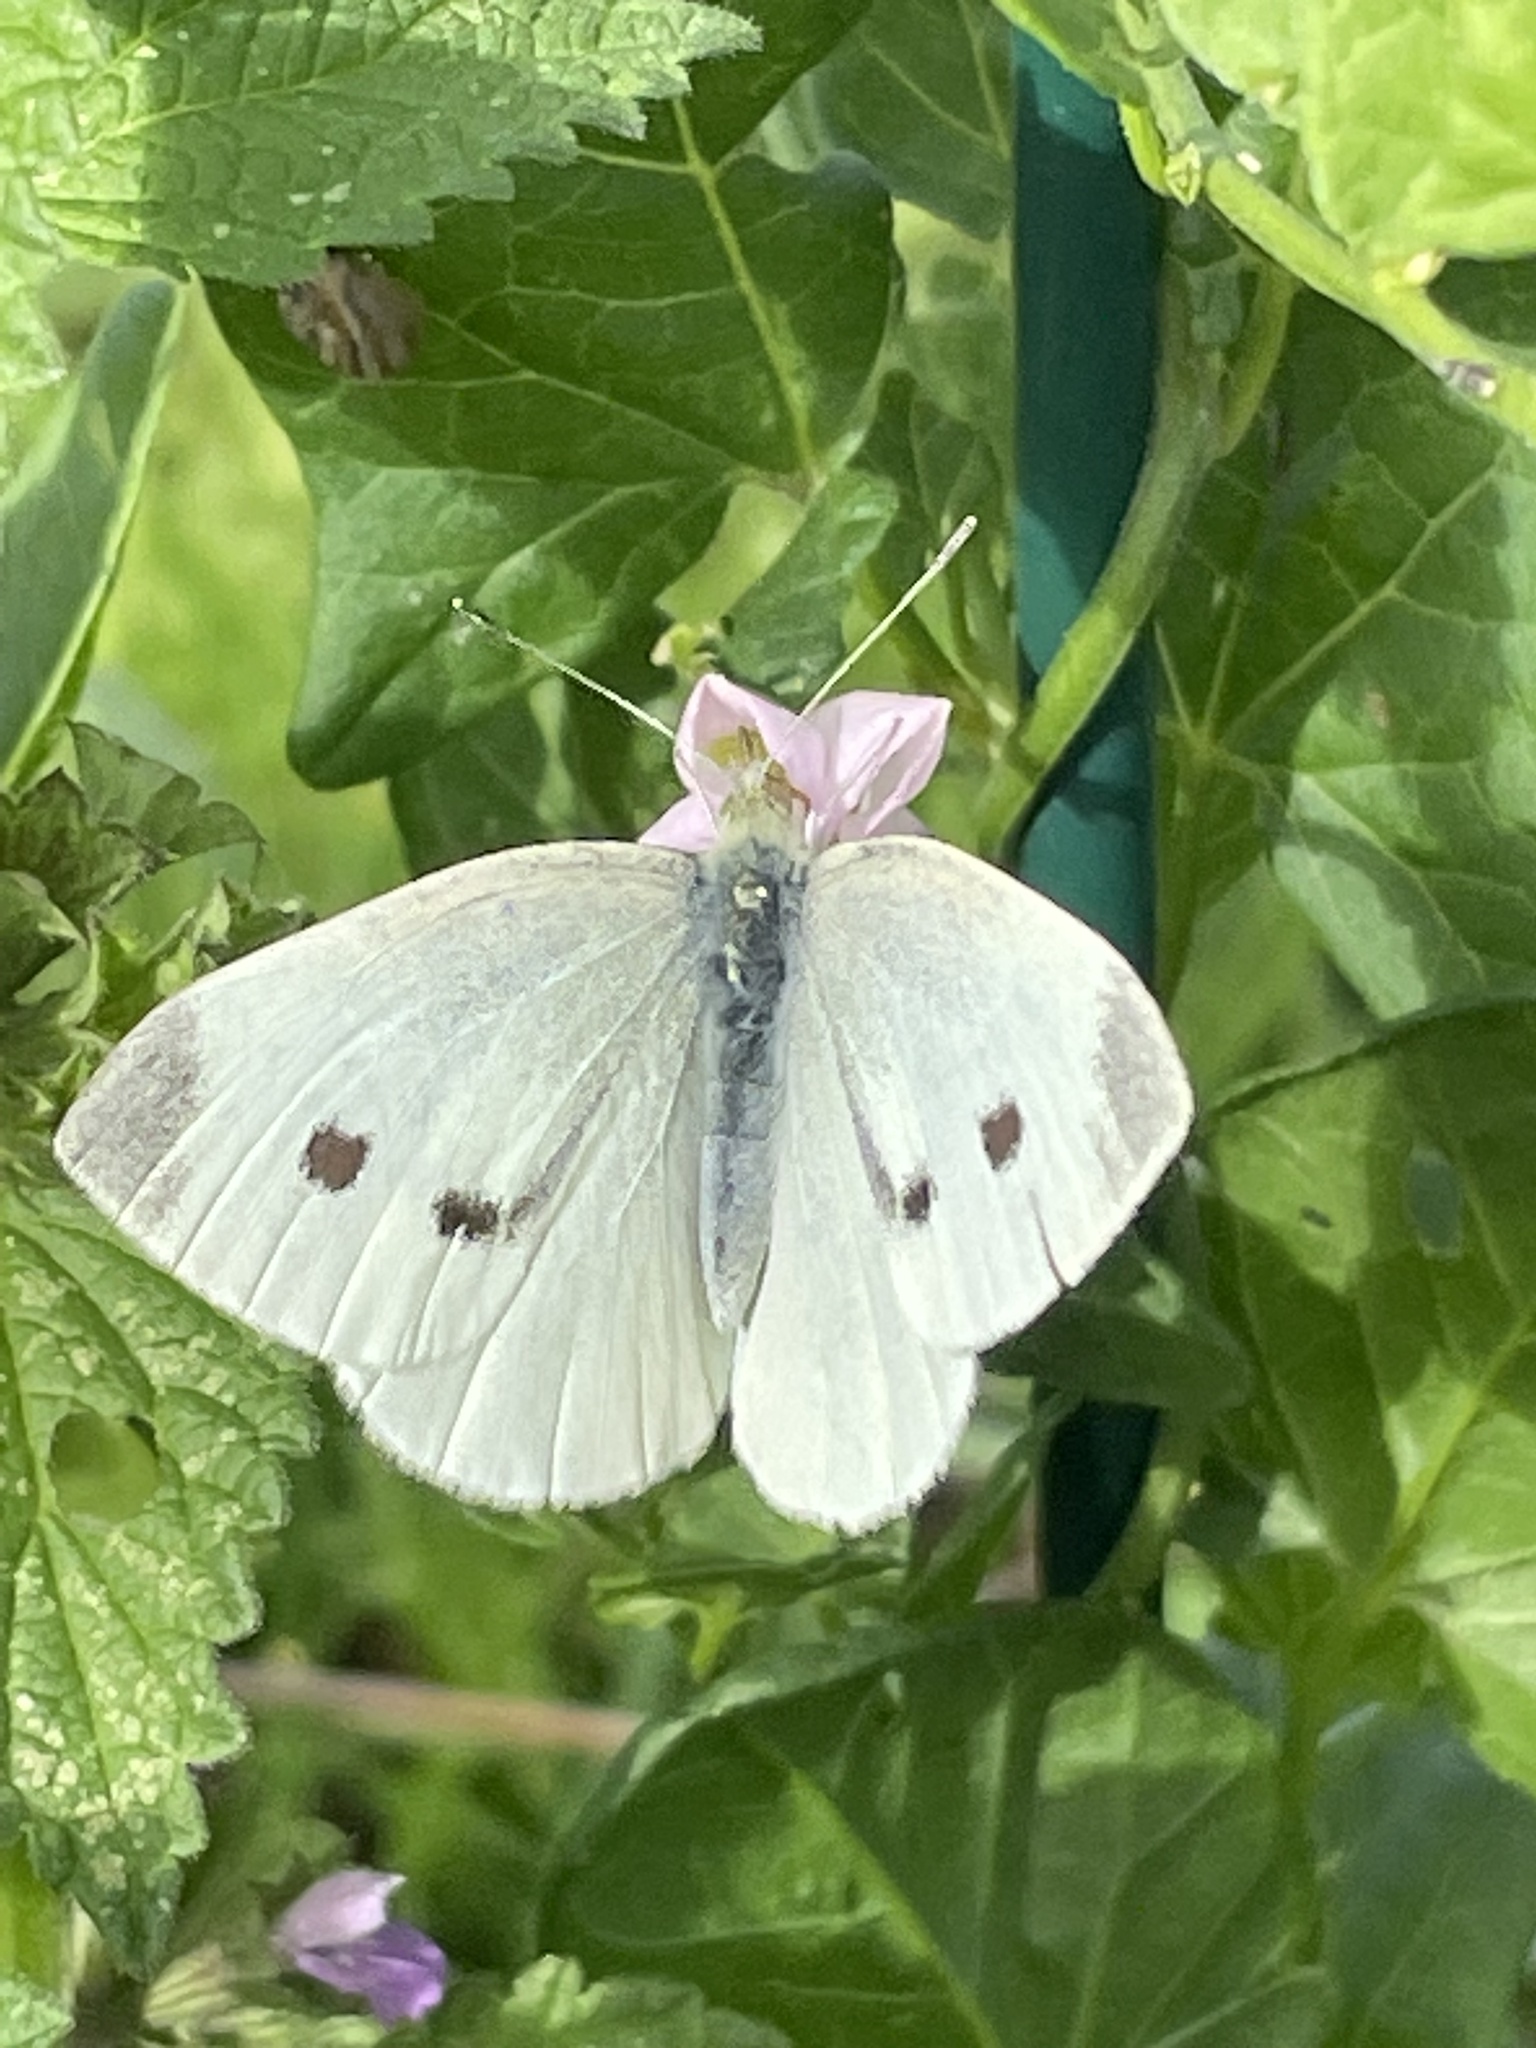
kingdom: Animalia
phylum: Arthropoda
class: Insecta
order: Lepidoptera
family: Pieridae
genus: Pieris
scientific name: Pieris rapae
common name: Small white
